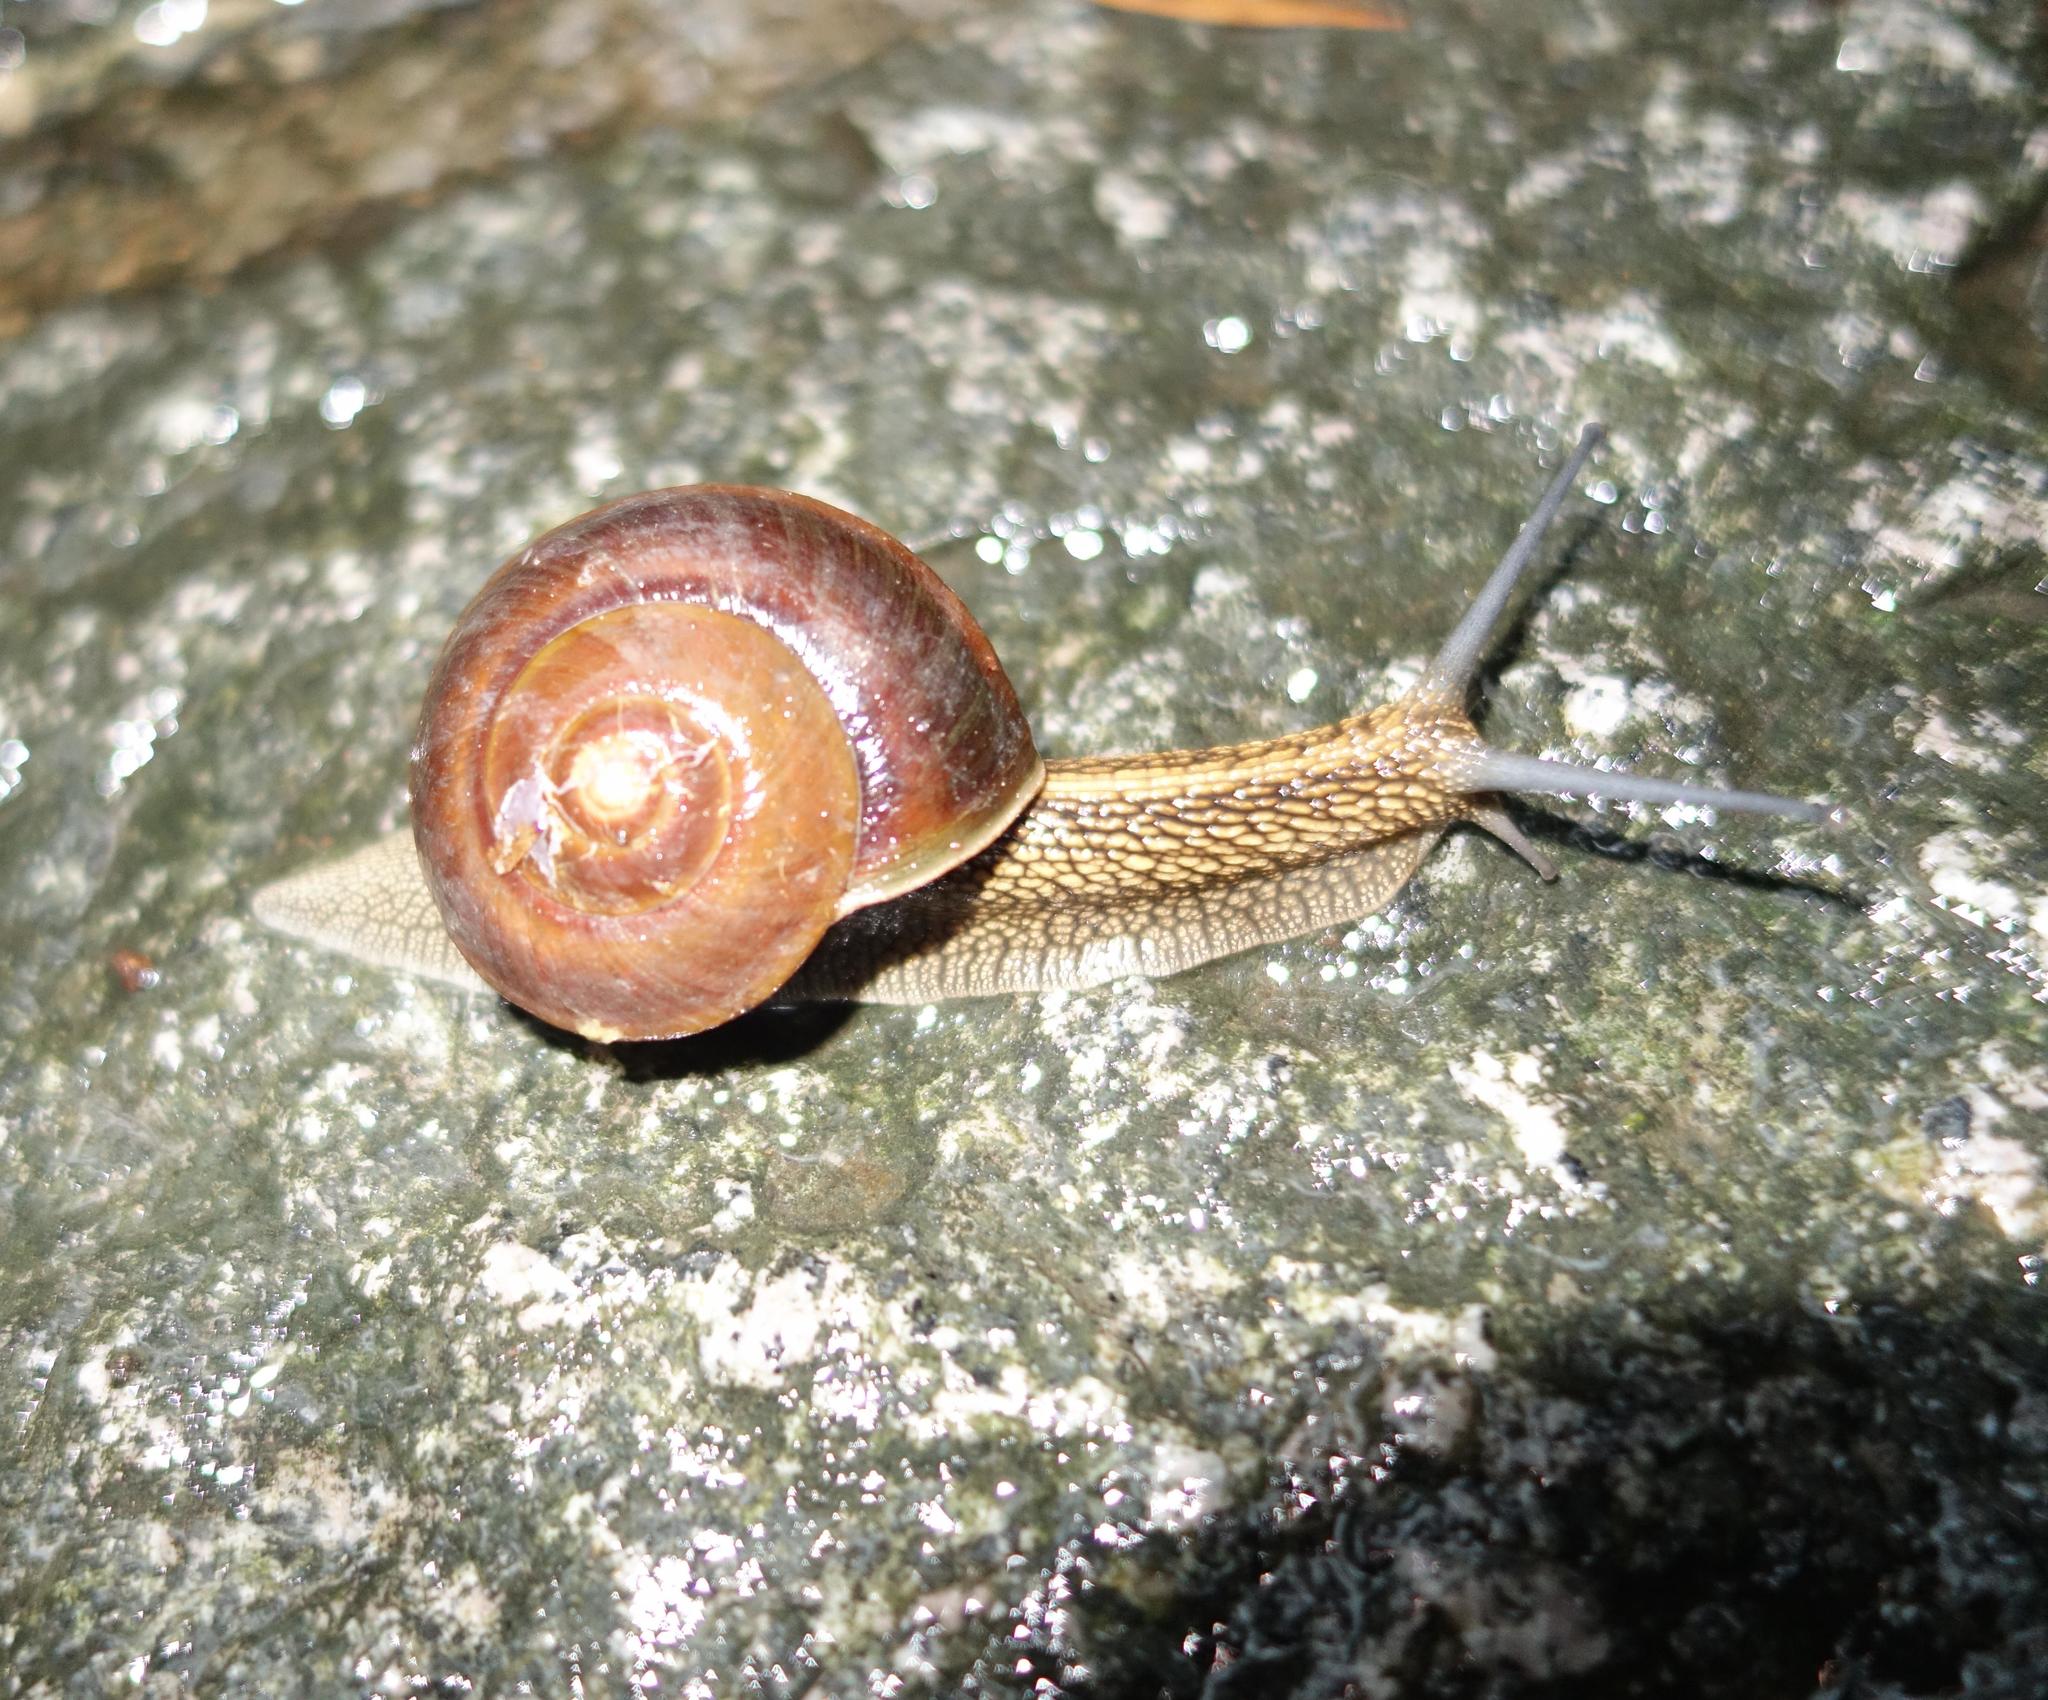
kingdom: Animalia
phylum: Mollusca
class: Gastropoda
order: Stylommatophora
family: Camaenidae
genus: Nesiohelix
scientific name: Nesiohelix swinhoei
